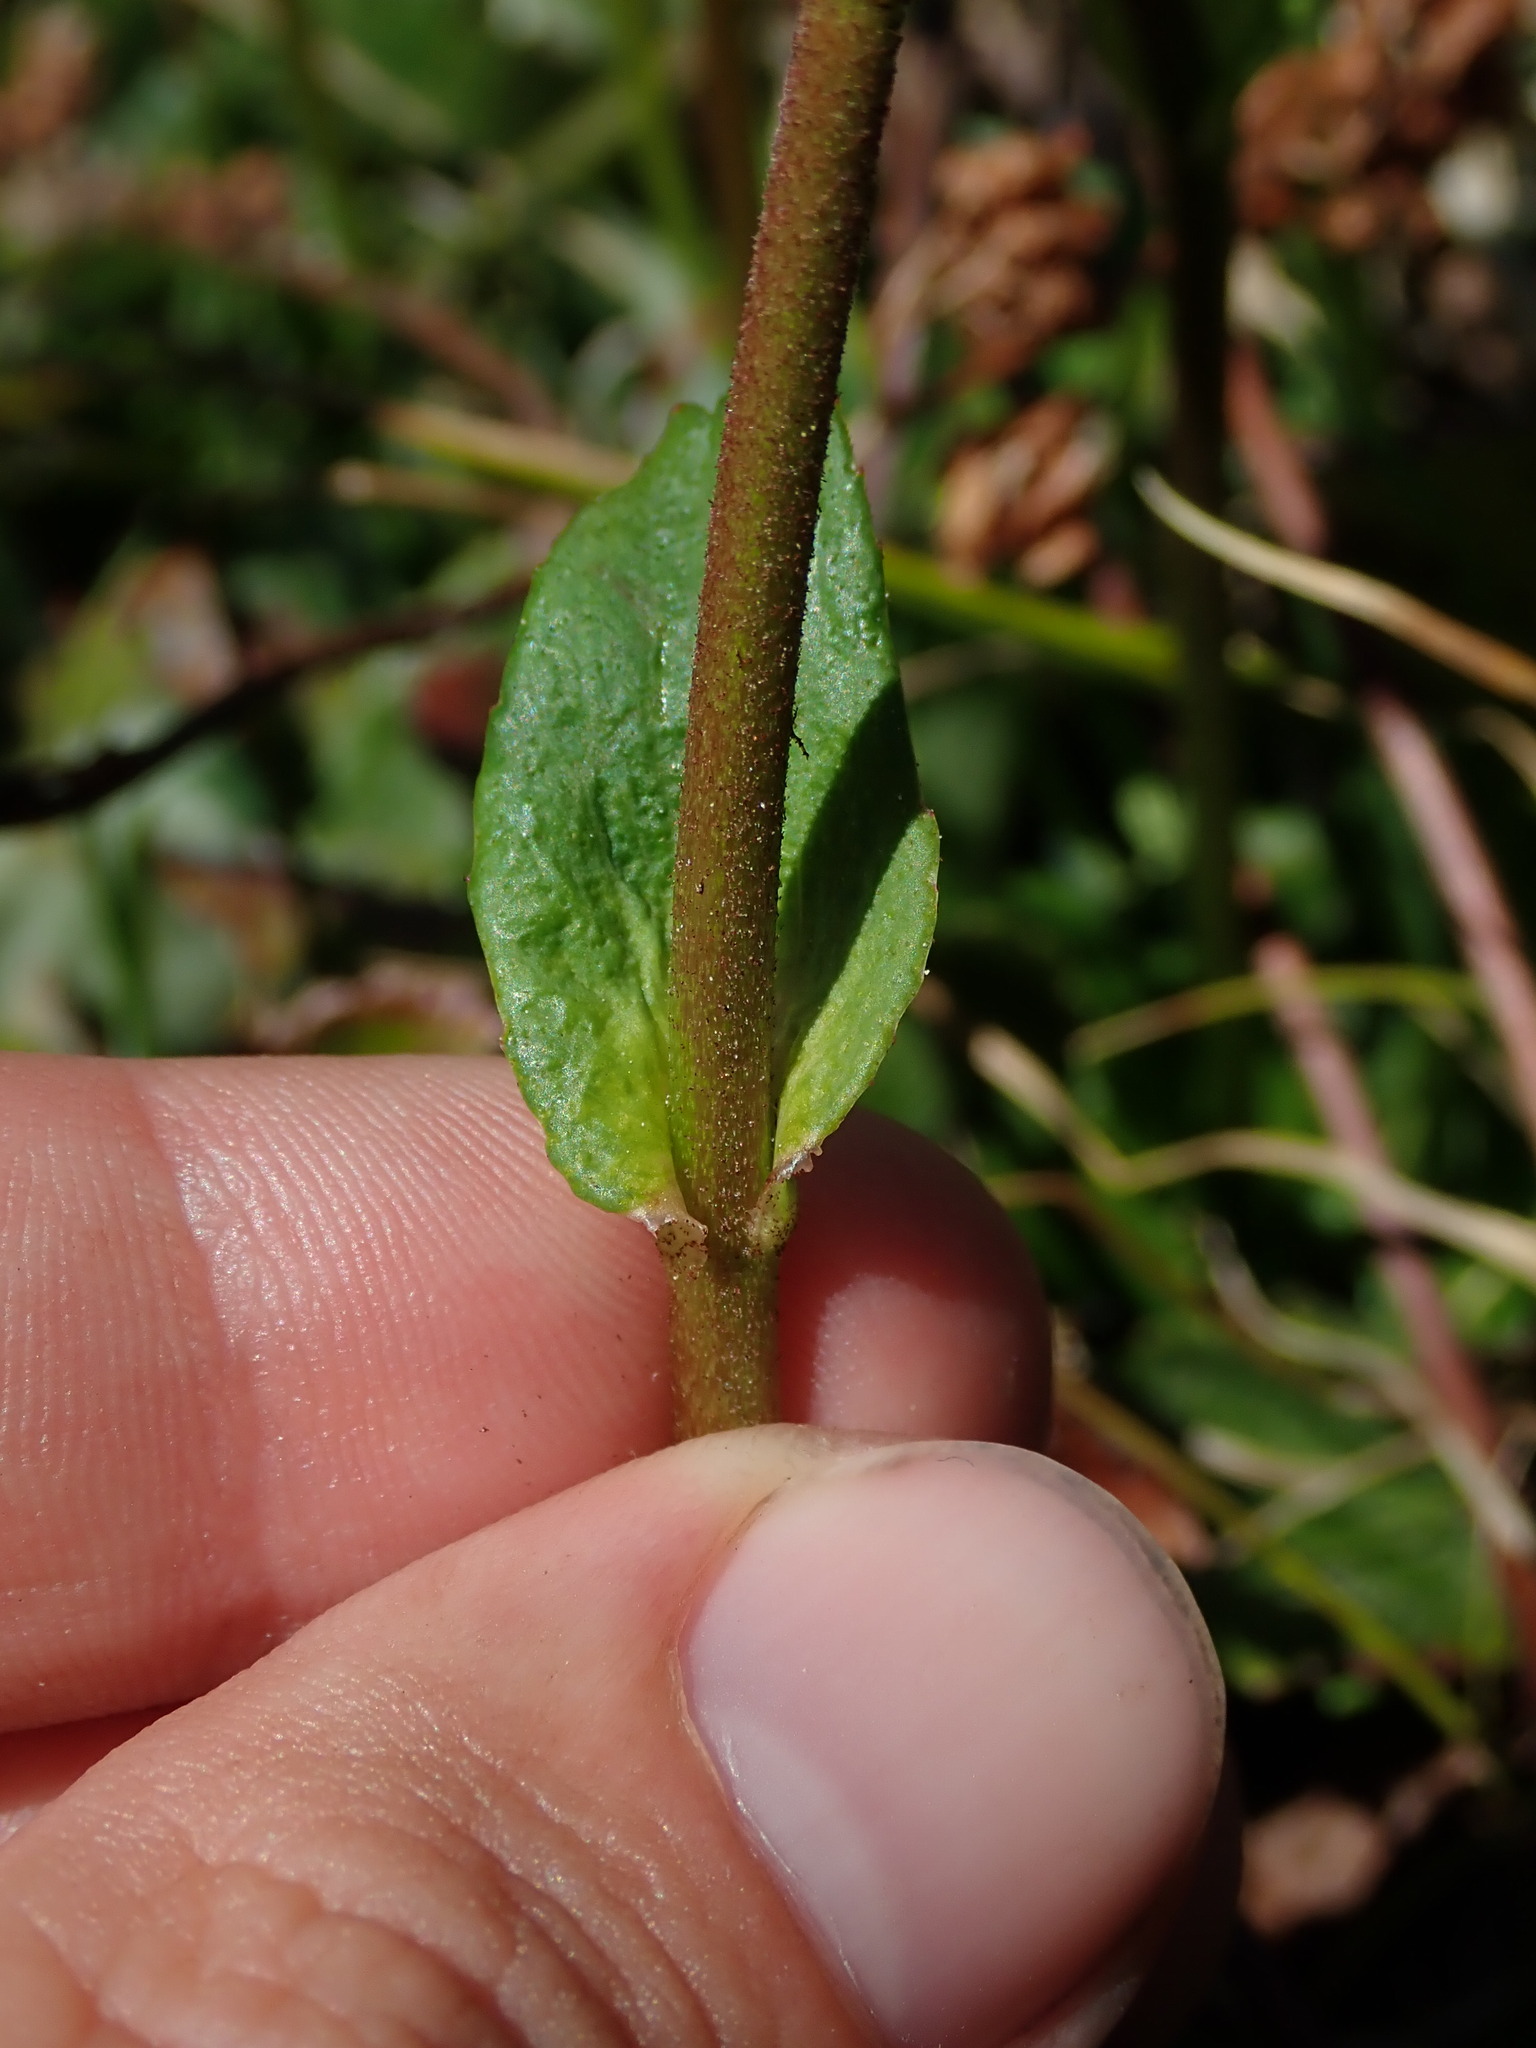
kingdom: Plantae
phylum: Tracheophyta
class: Magnoliopsida
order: Saxifragales
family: Saxifragaceae
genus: Leptarrhena
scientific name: Leptarrhena pyrolifolia
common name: Leatherleaf-saxifrage
